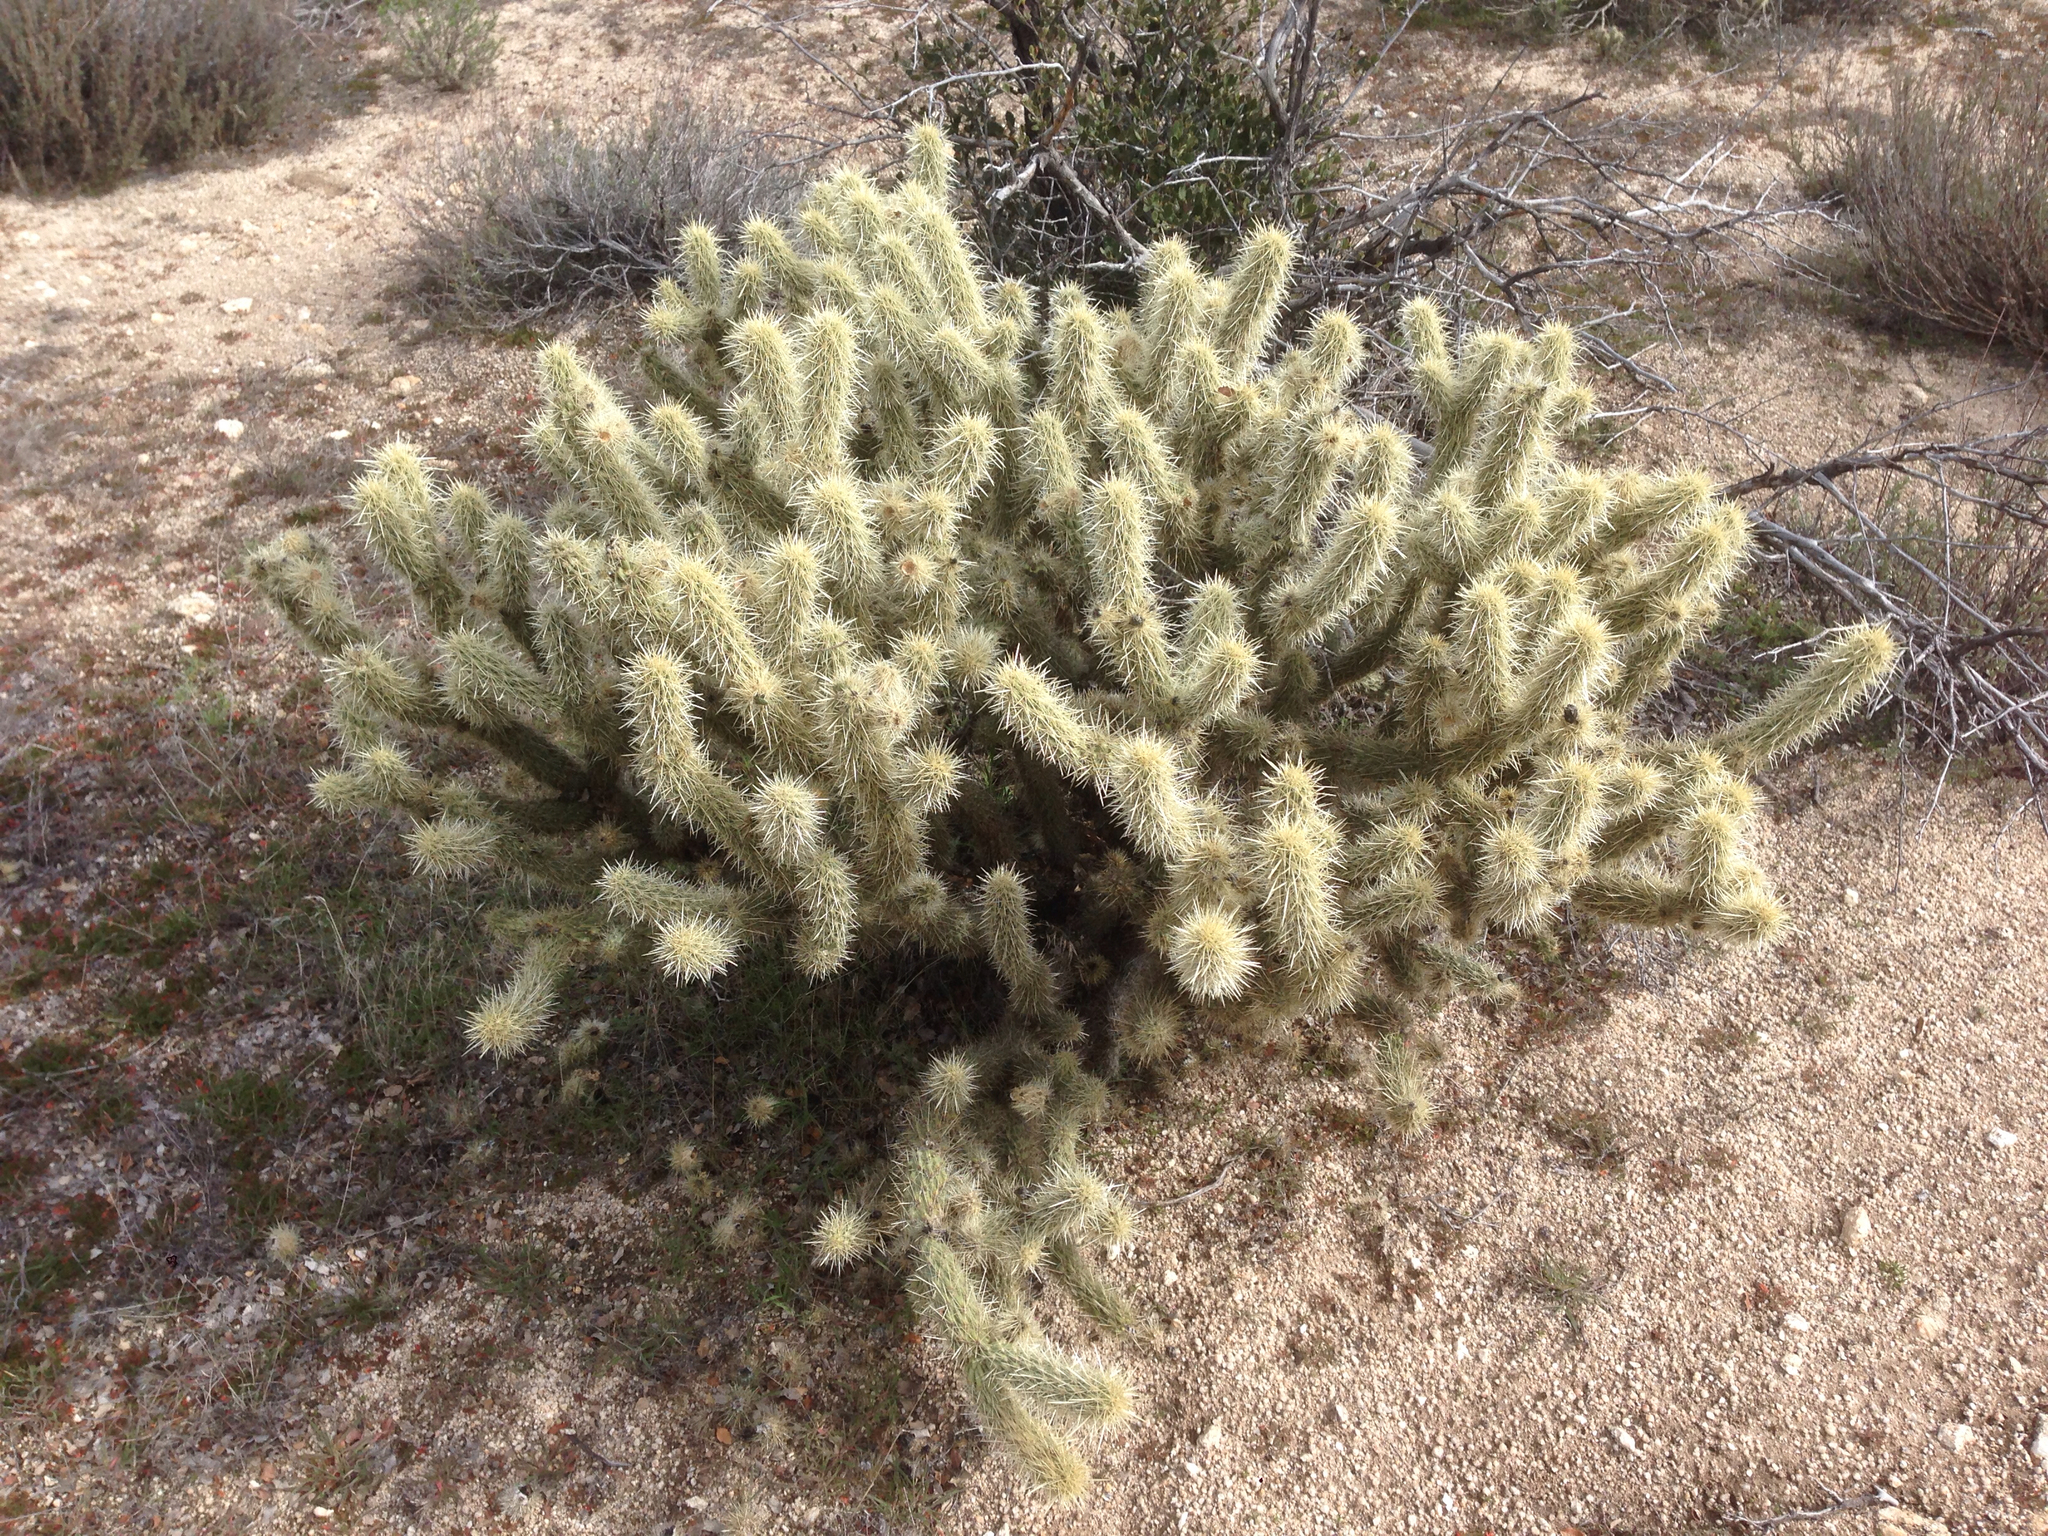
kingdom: Plantae
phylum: Tracheophyta
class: Magnoliopsida
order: Caryophyllales
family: Cactaceae
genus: Cylindropuntia
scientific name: Cylindropuntia ganderi
